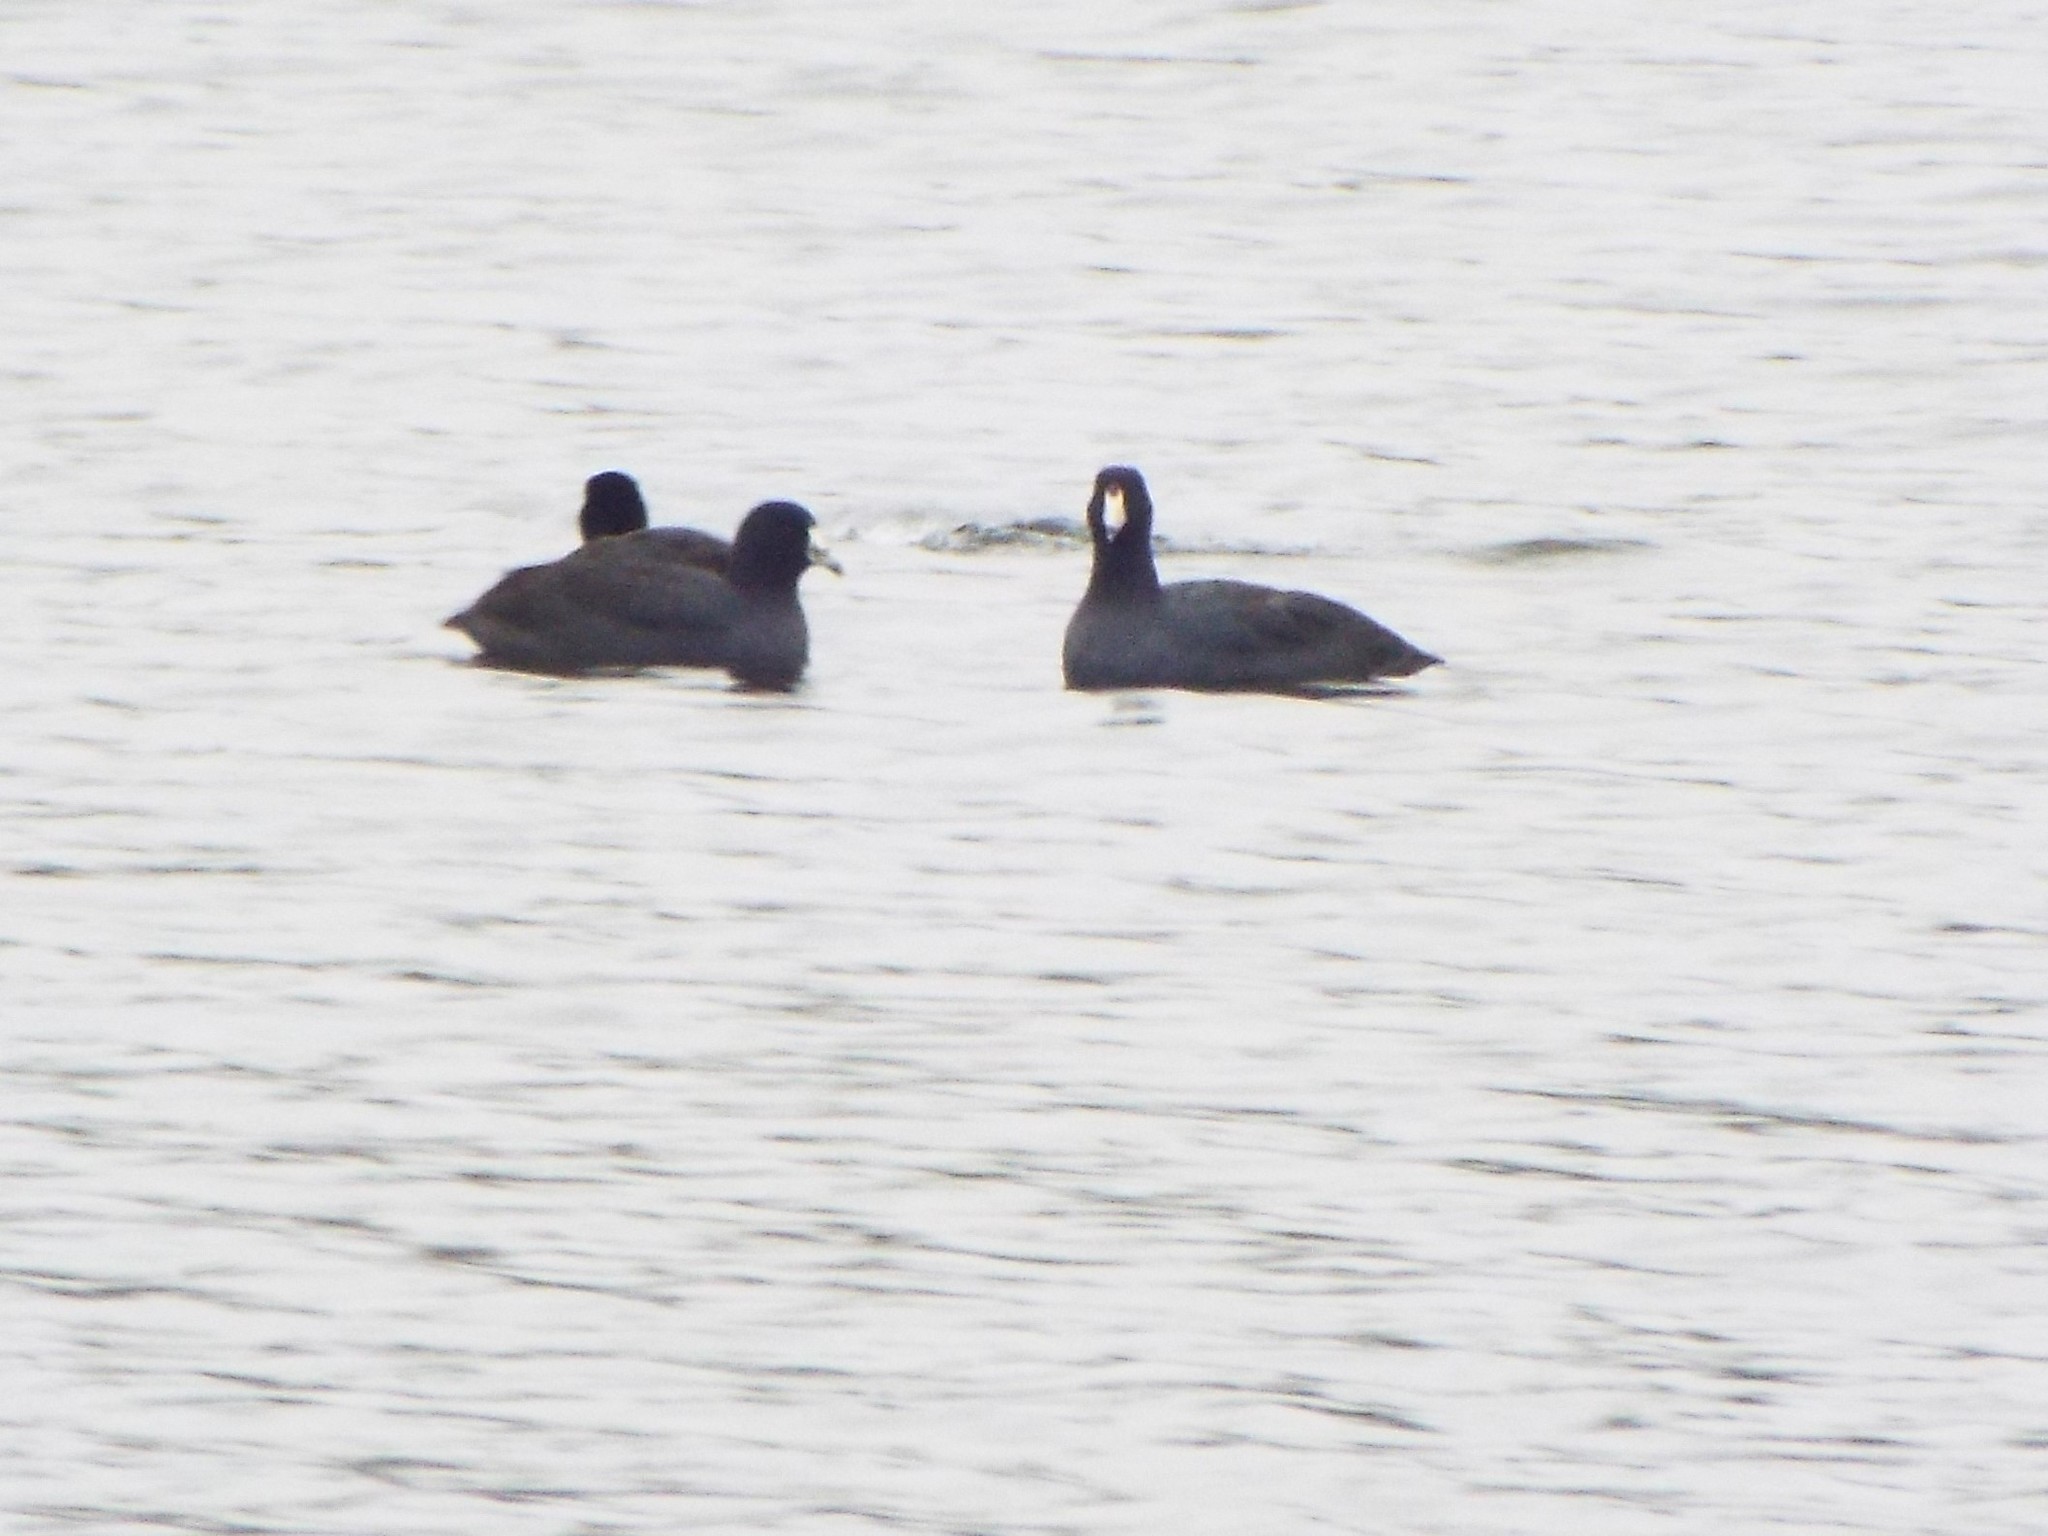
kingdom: Animalia
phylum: Chordata
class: Aves
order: Gruiformes
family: Rallidae
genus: Fulica
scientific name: Fulica americana
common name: American coot
